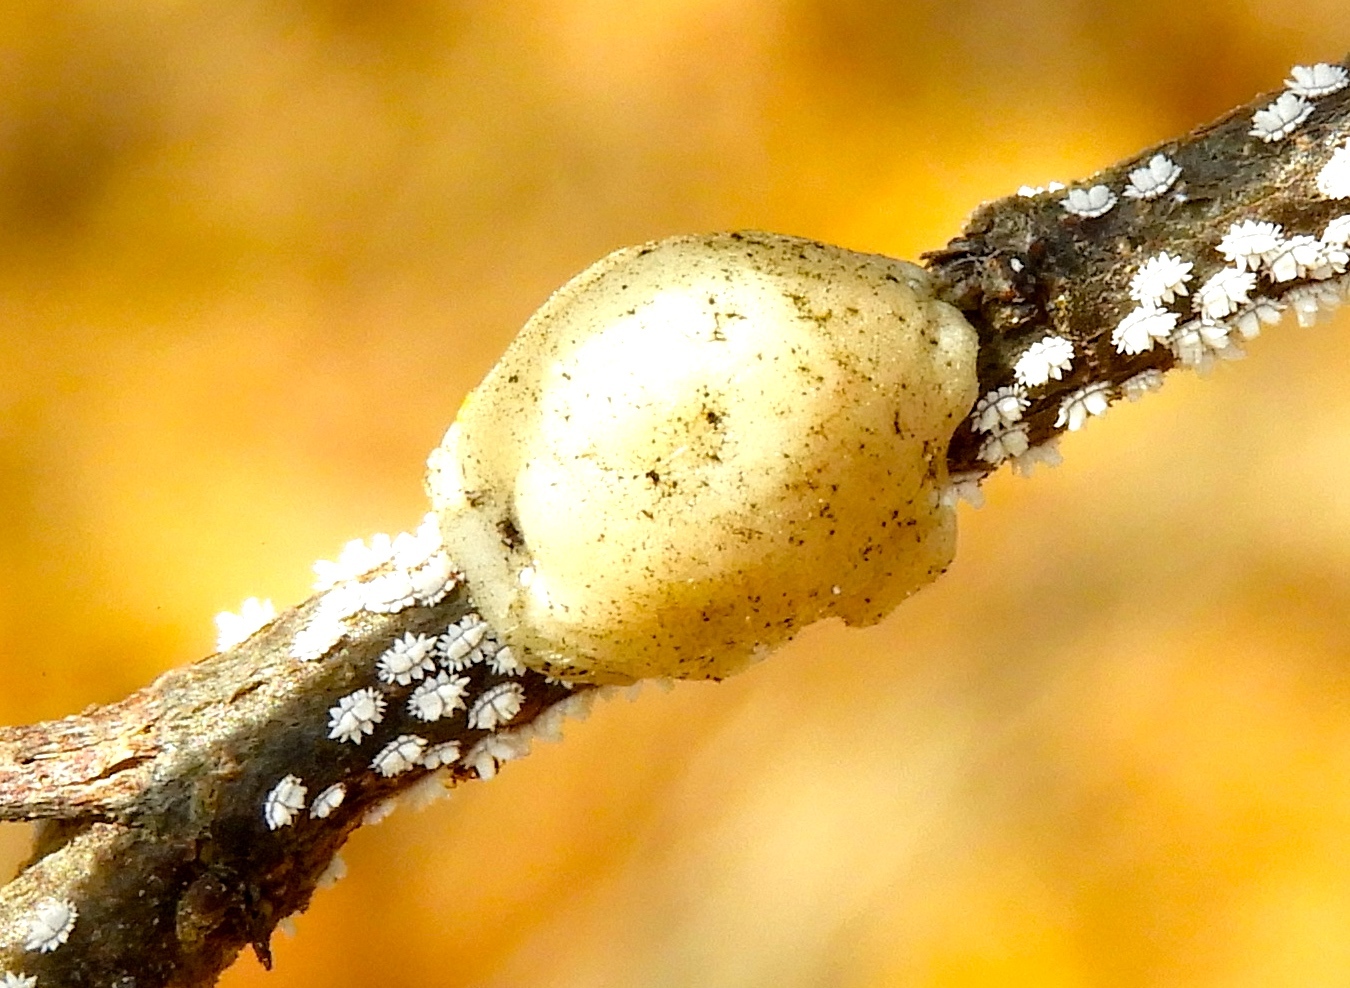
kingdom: Animalia
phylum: Arthropoda
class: Insecta
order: Hemiptera
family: Coccidae
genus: Ceroplastes
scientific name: Ceroplastes
